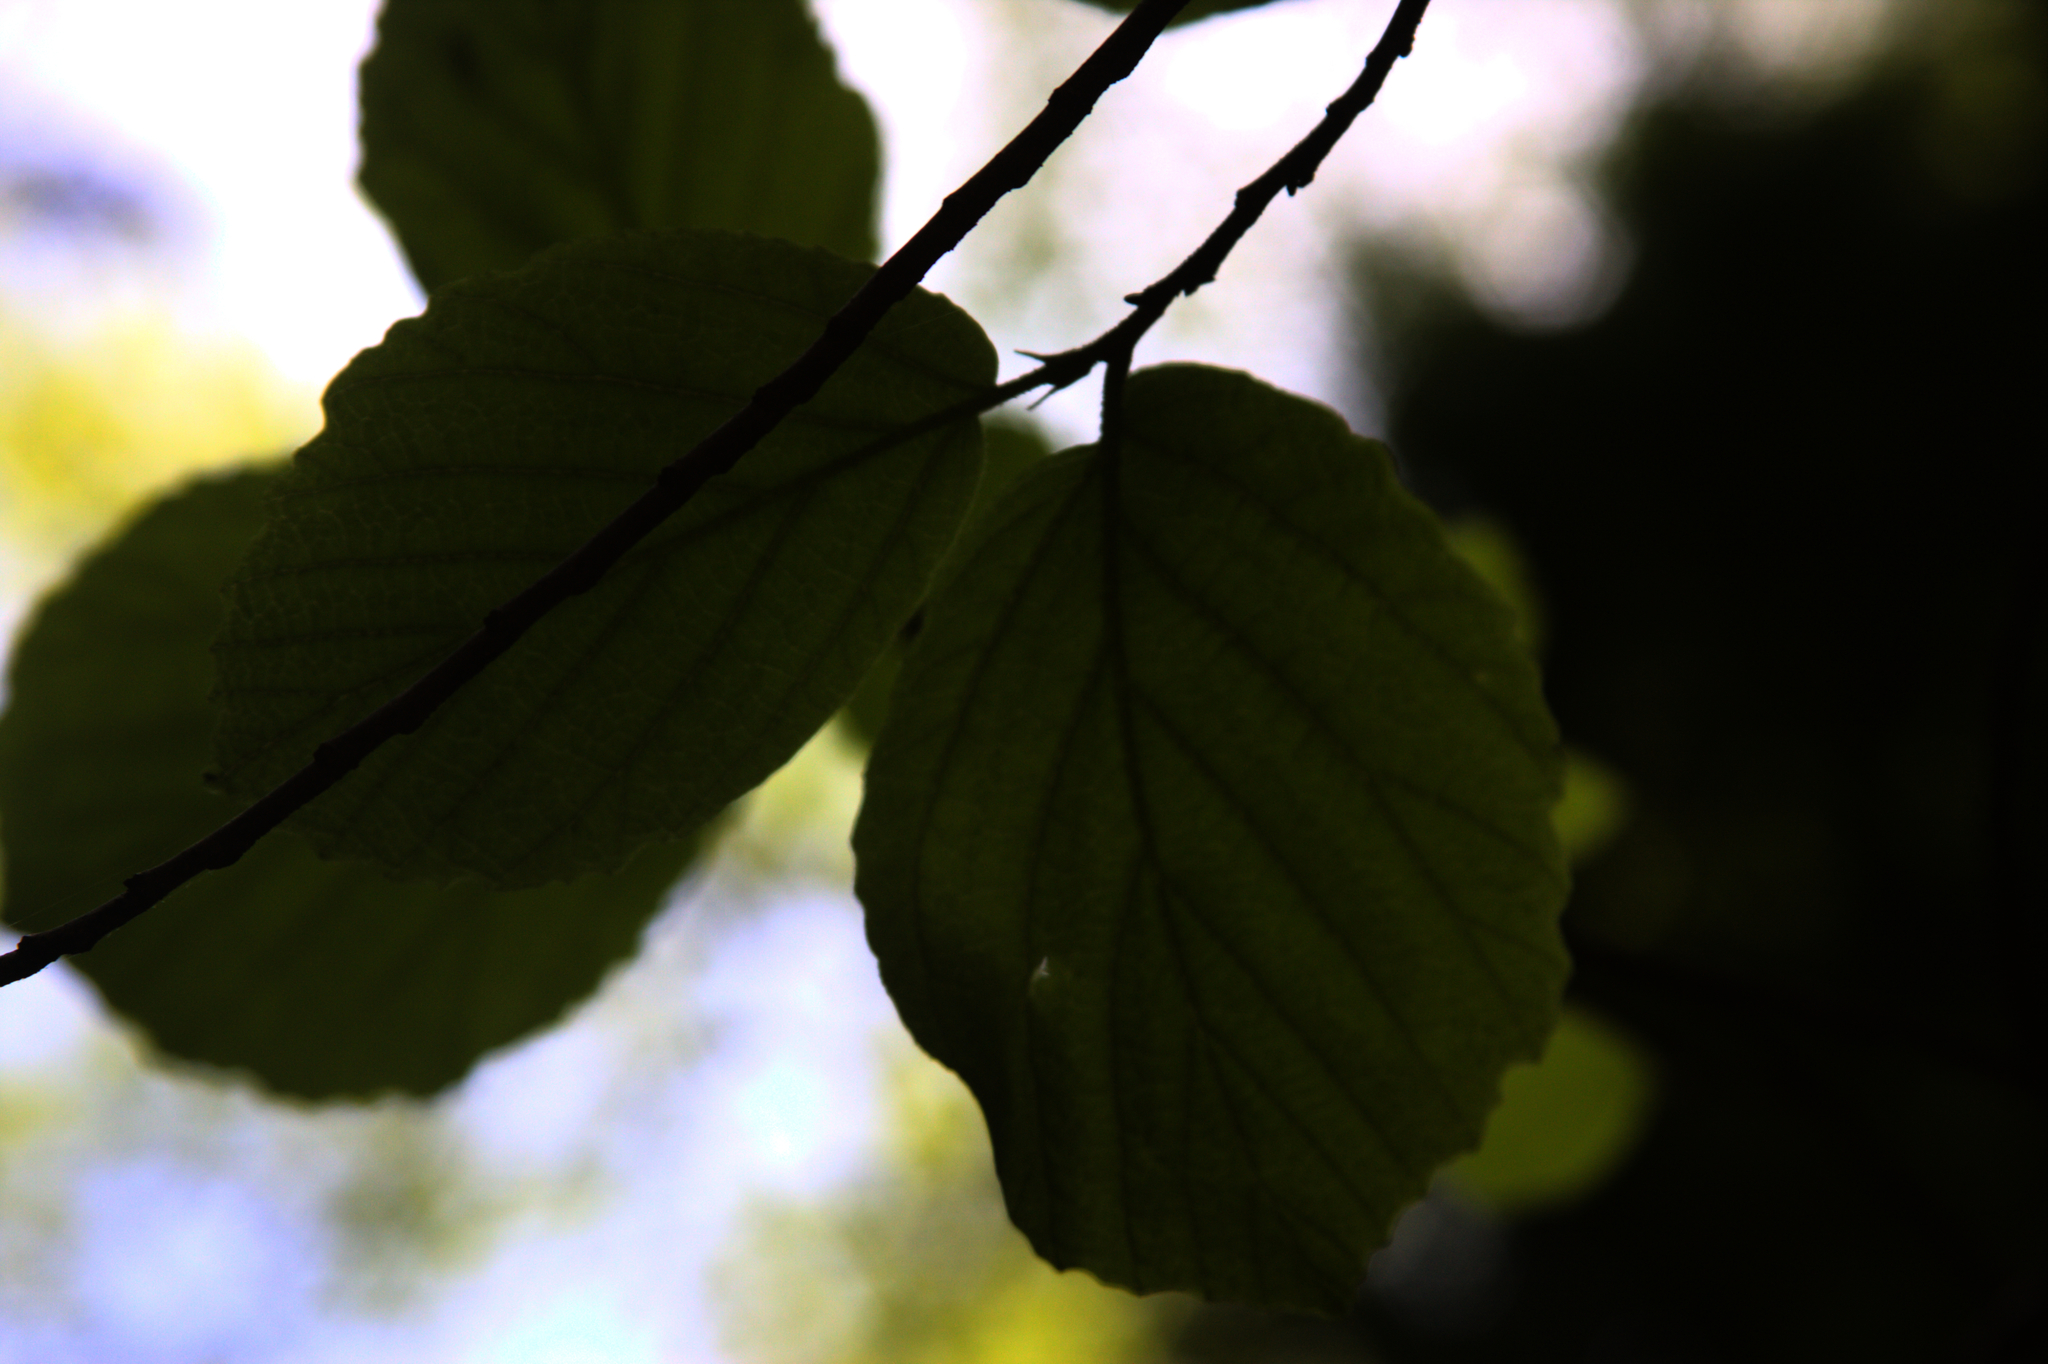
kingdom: Plantae
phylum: Tracheophyta
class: Magnoliopsida
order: Saxifragales
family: Hamamelidaceae
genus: Hamamelis
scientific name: Hamamelis virginiana
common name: Witch-hazel
